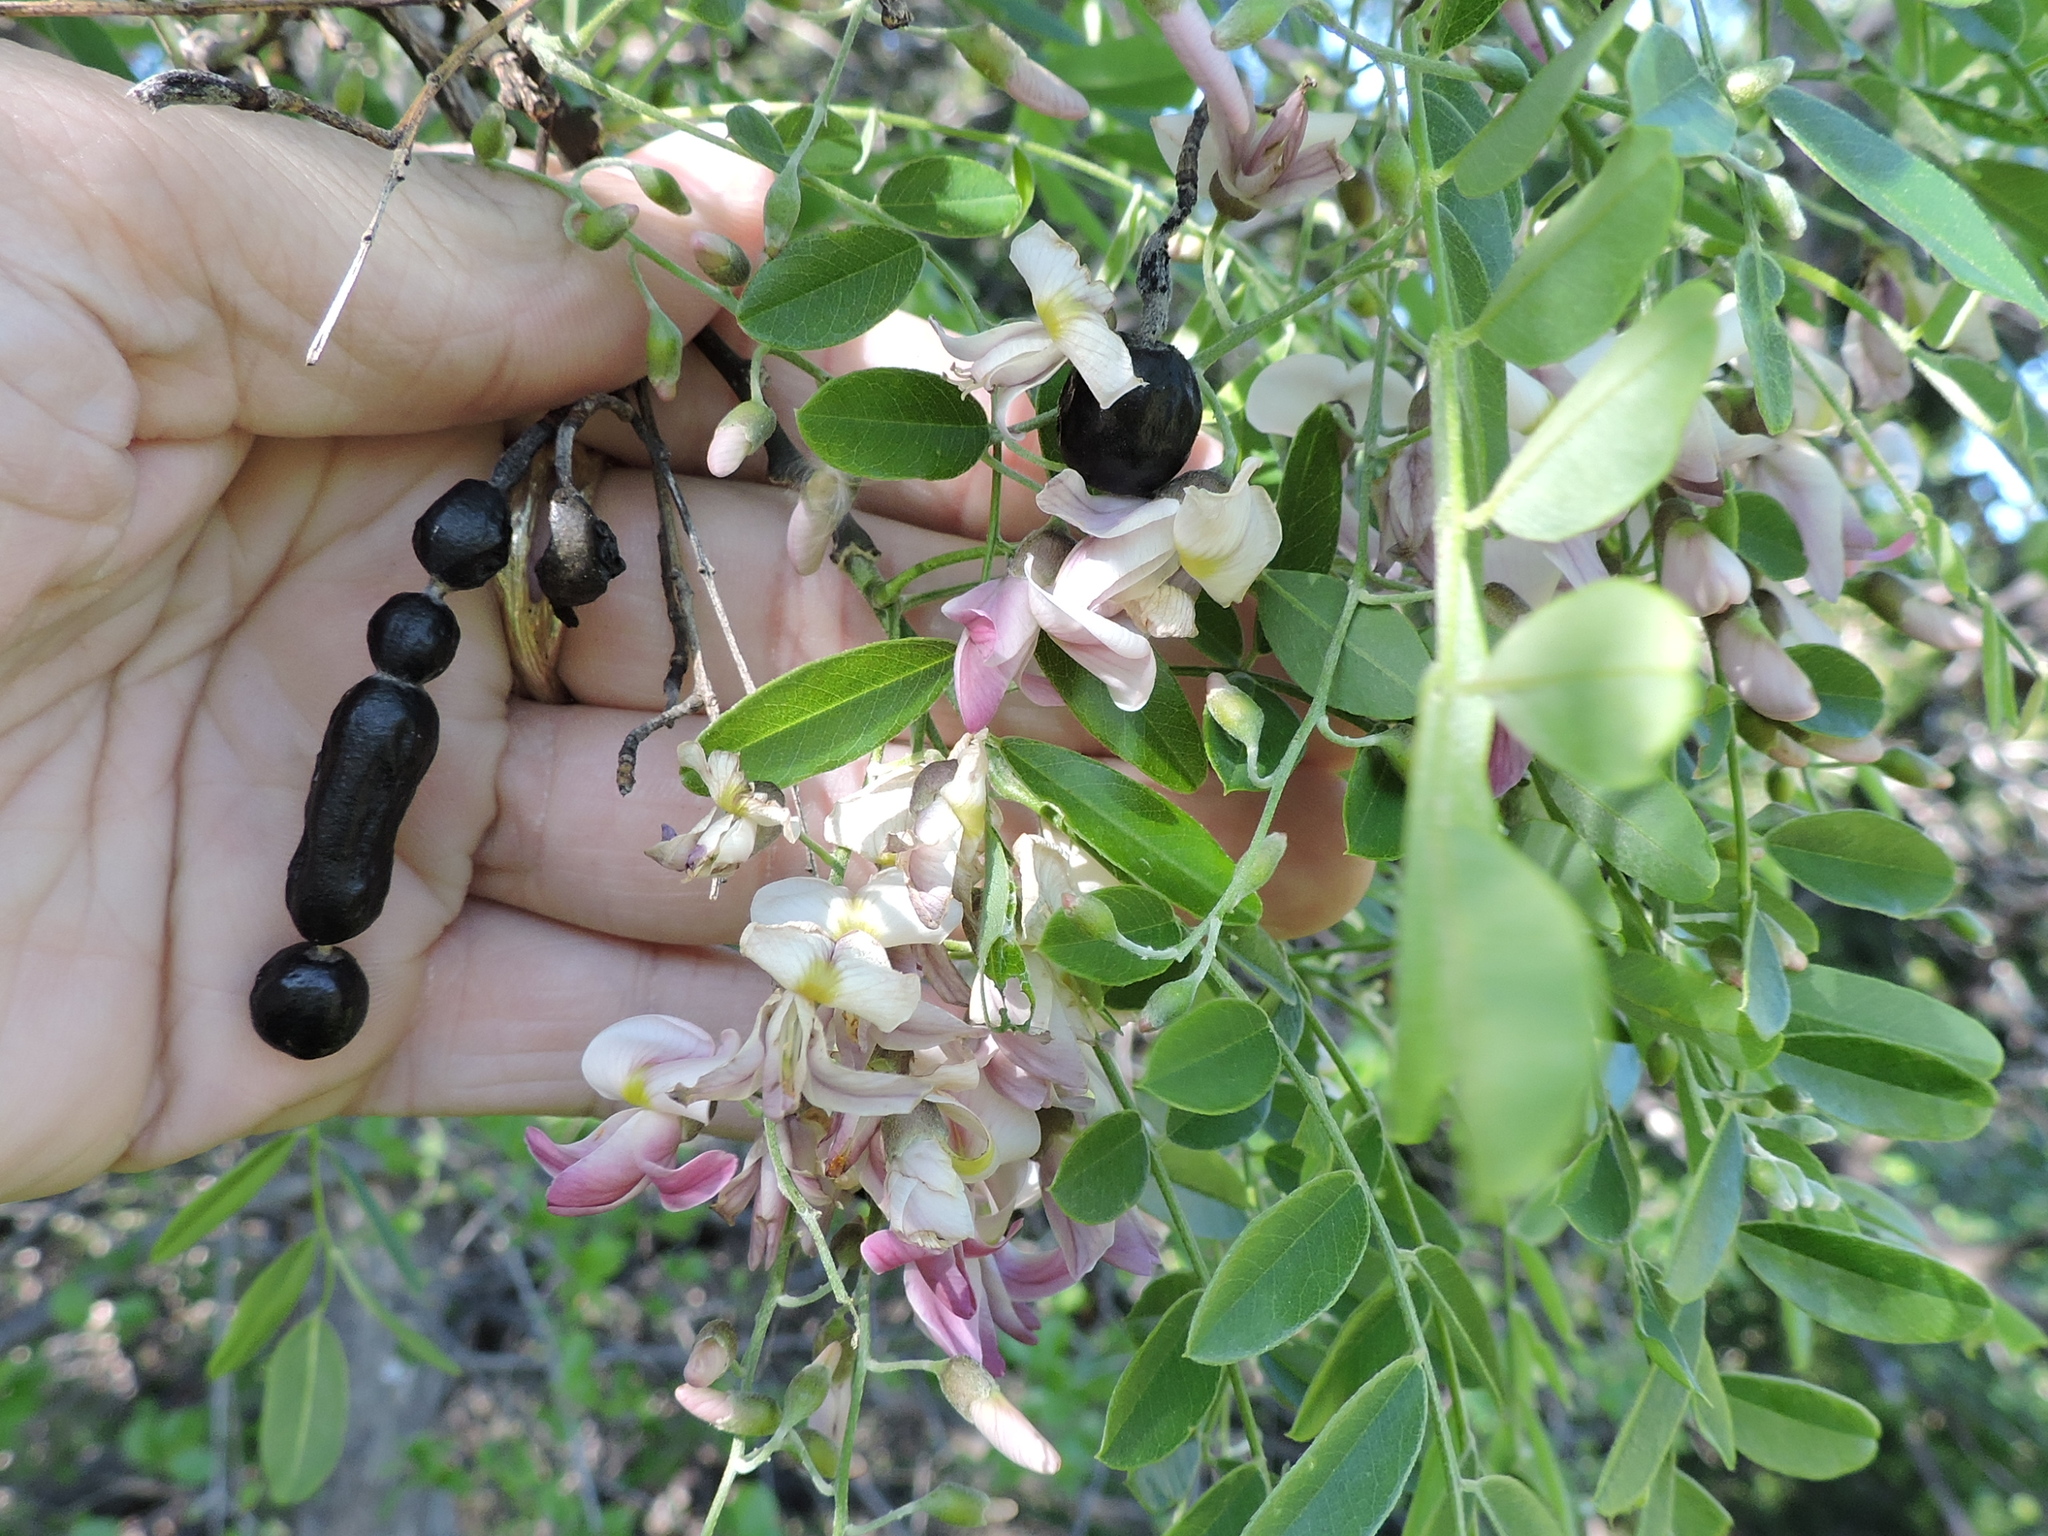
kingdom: Plantae
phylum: Tracheophyta
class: Magnoliopsida
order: Fabales
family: Fabaceae
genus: Styphnolobium
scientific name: Styphnolobium affine
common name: Texas sophora
